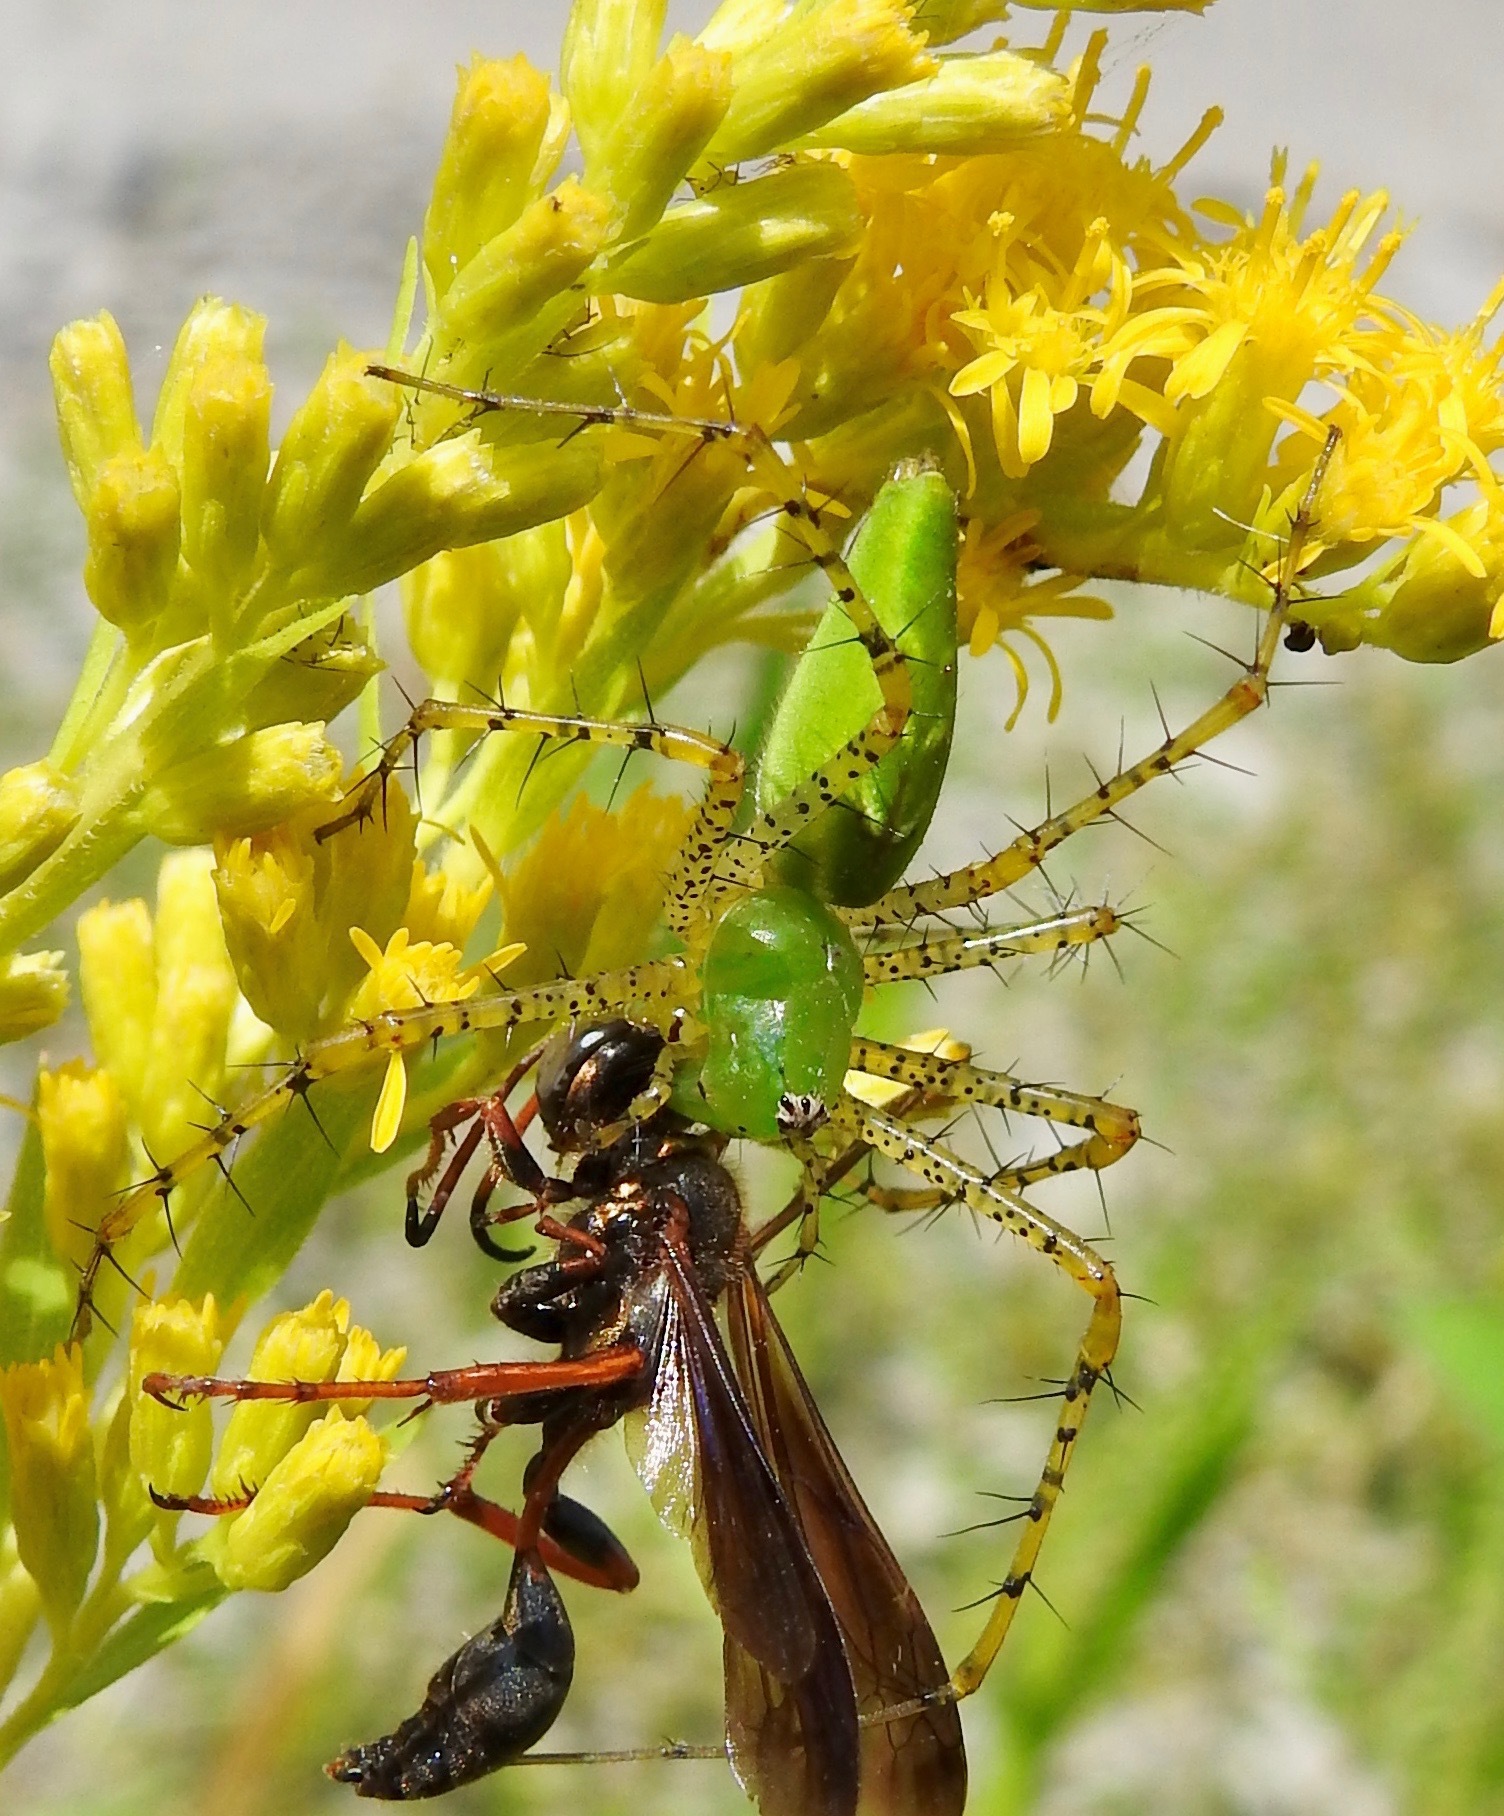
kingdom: Animalia
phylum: Arthropoda
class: Arachnida
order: Araneae
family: Oxyopidae
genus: Peucetia
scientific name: Peucetia viridans
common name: Lynx spiders
